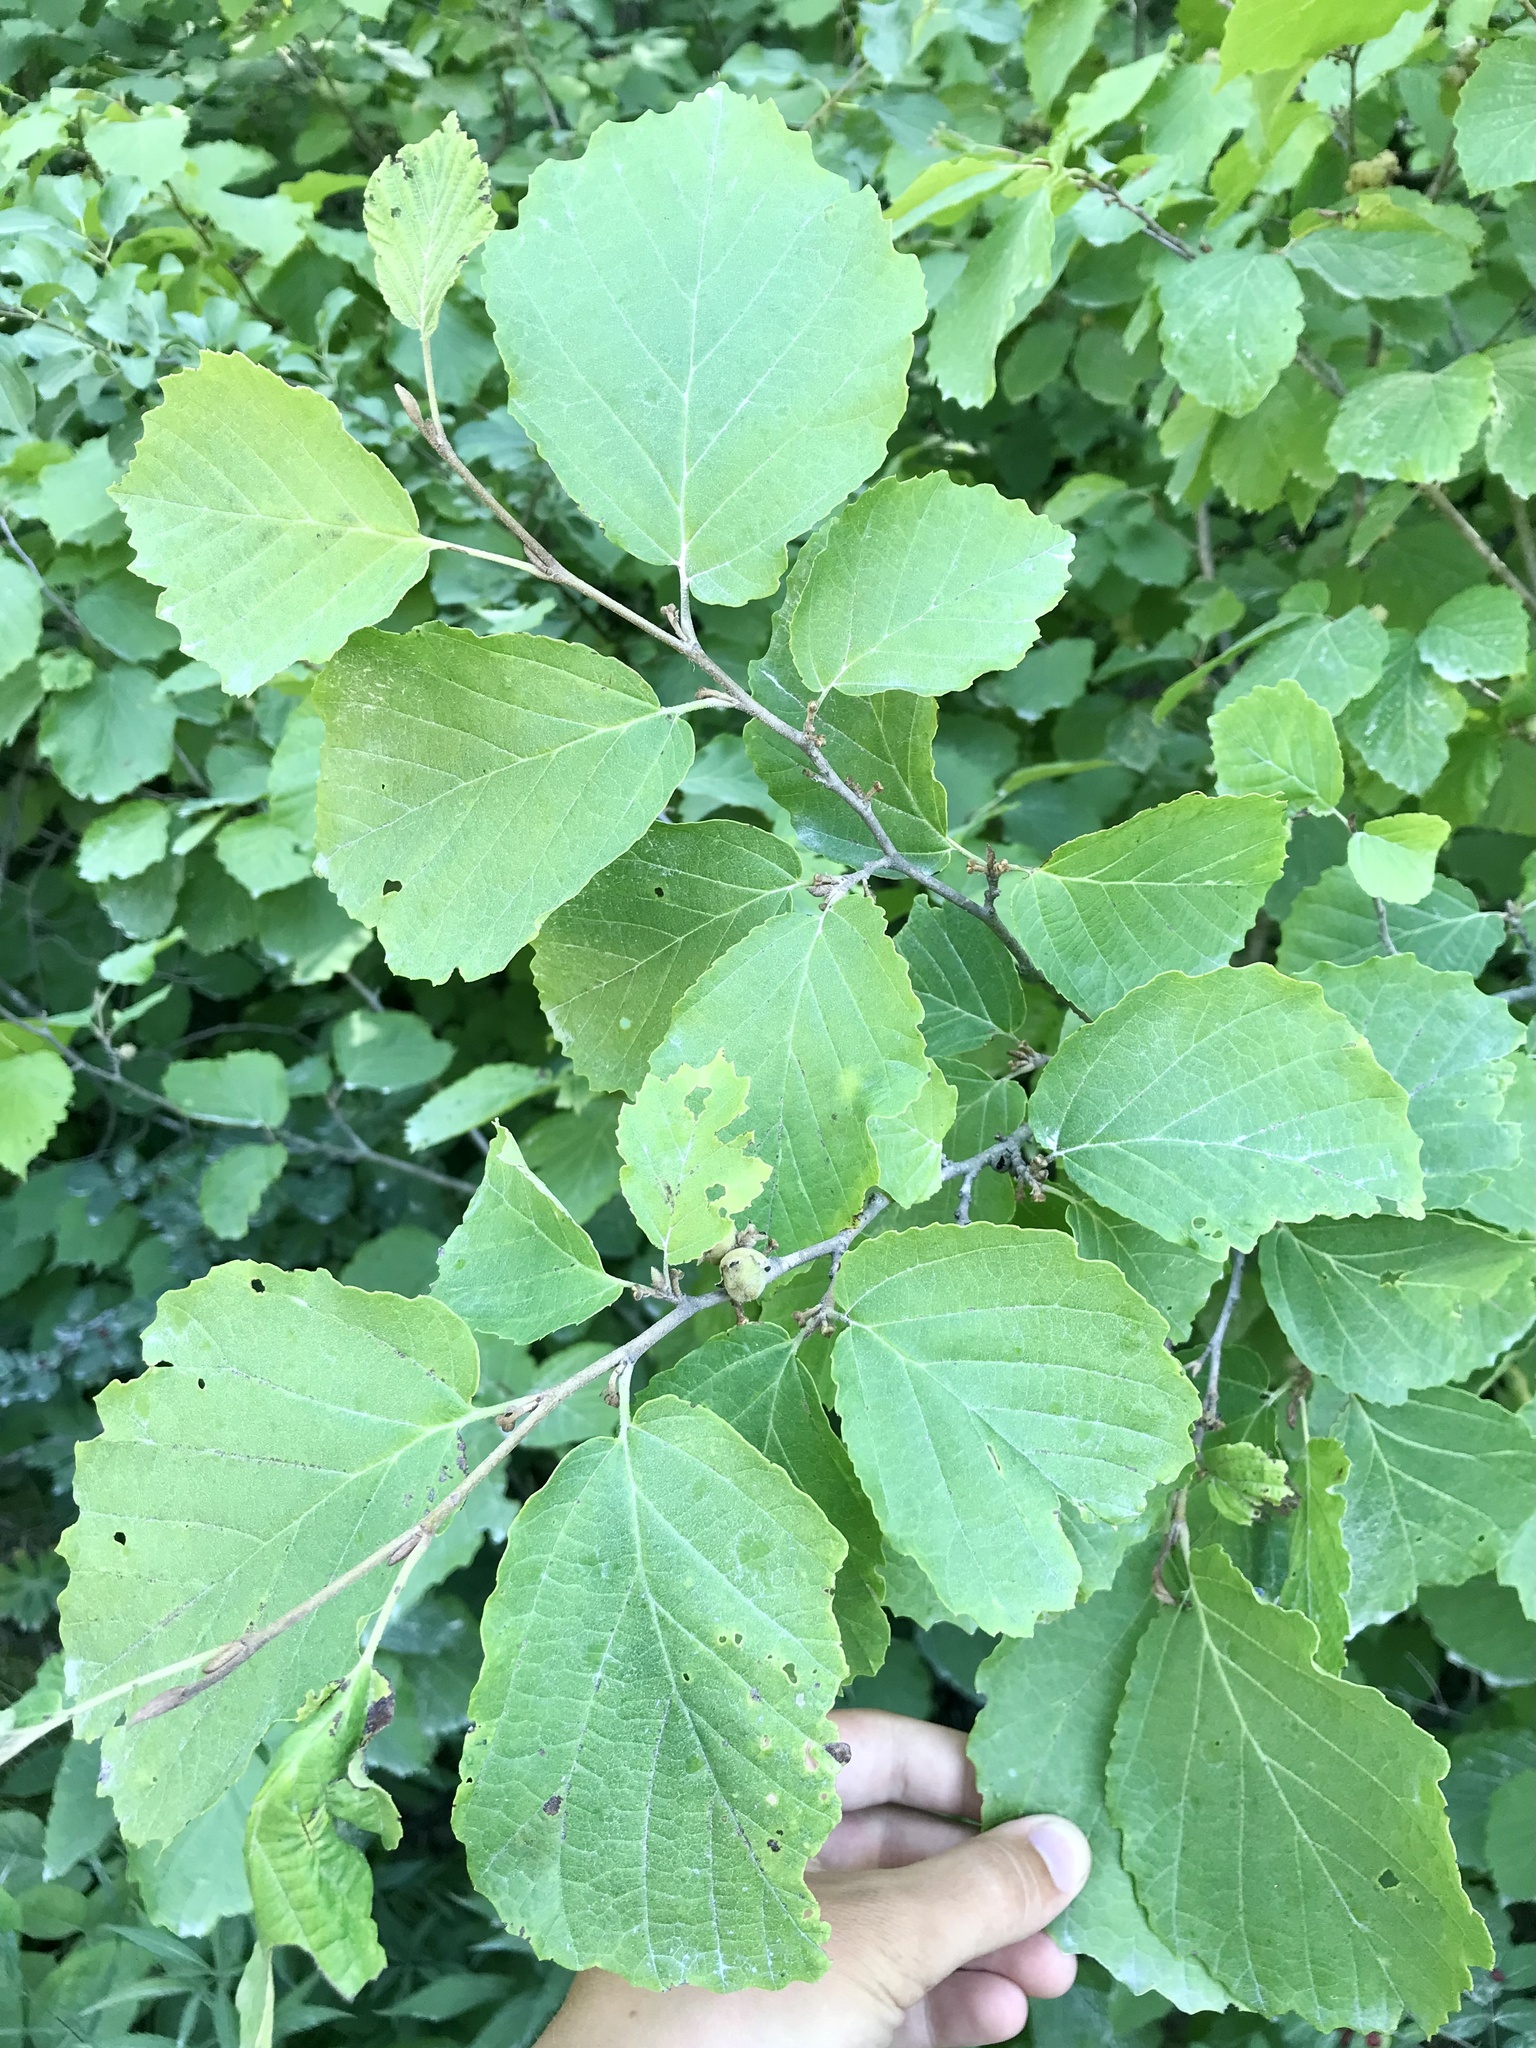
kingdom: Plantae
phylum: Tracheophyta
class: Magnoliopsida
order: Saxifragales
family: Hamamelidaceae
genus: Hamamelis
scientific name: Hamamelis virginiana
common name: Witch-hazel
